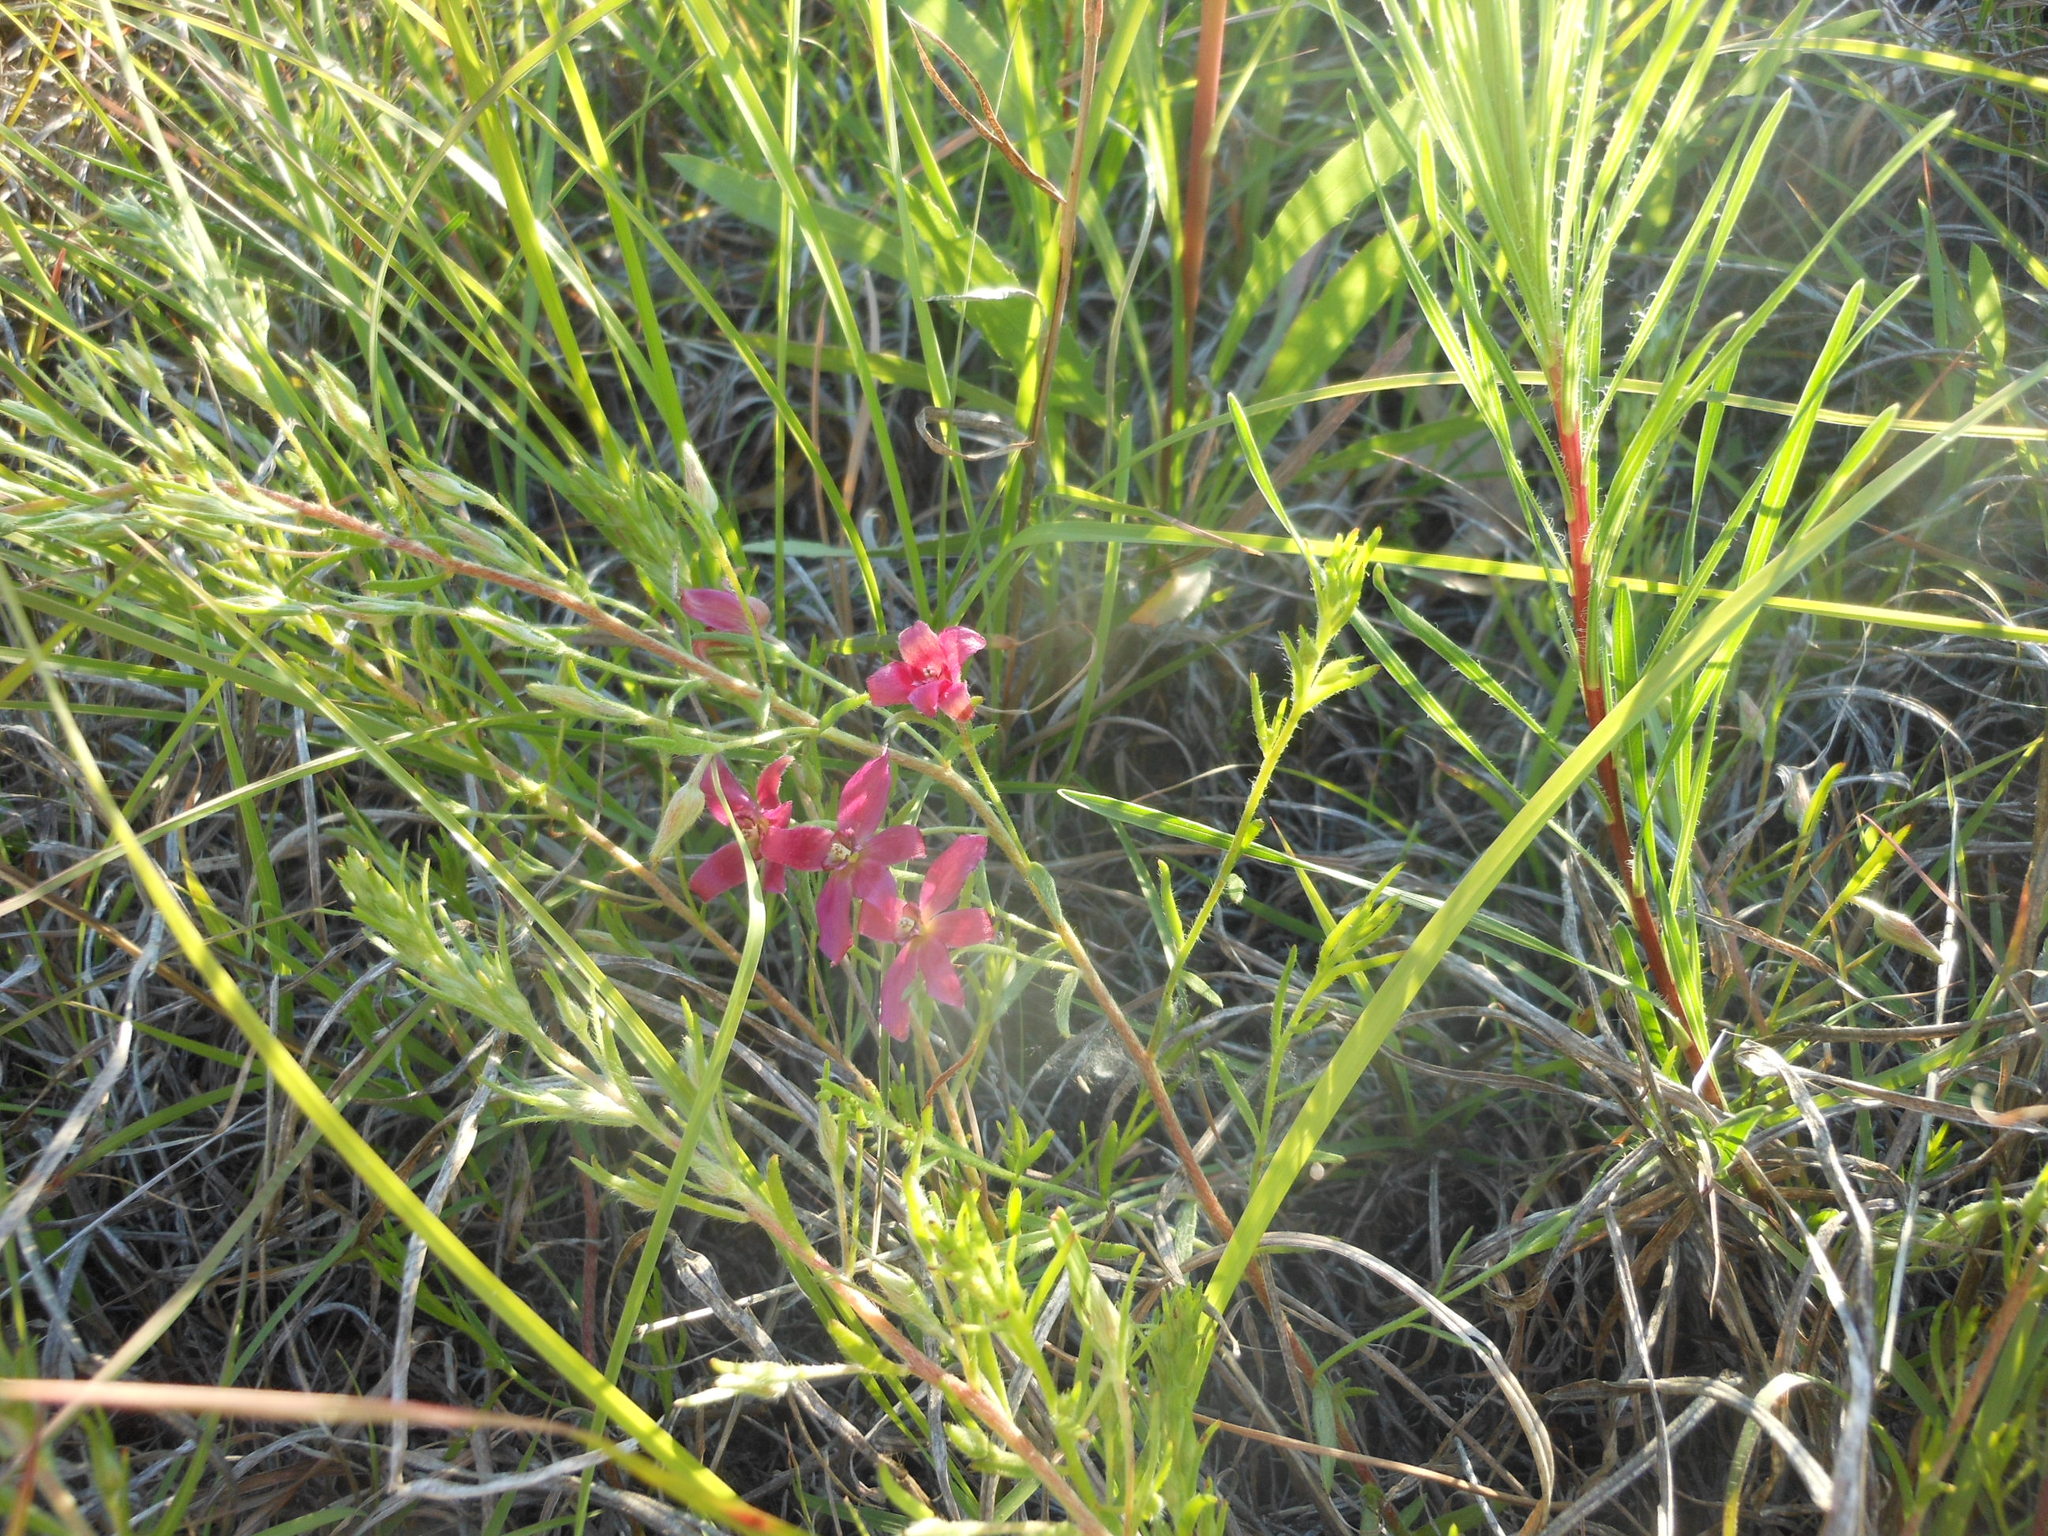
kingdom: Plantae
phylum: Tracheophyta
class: Magnoliopsida
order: Zygophyllales
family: Krameriaceae
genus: Krameria
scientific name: Krameria lanceolata
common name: Ratany
